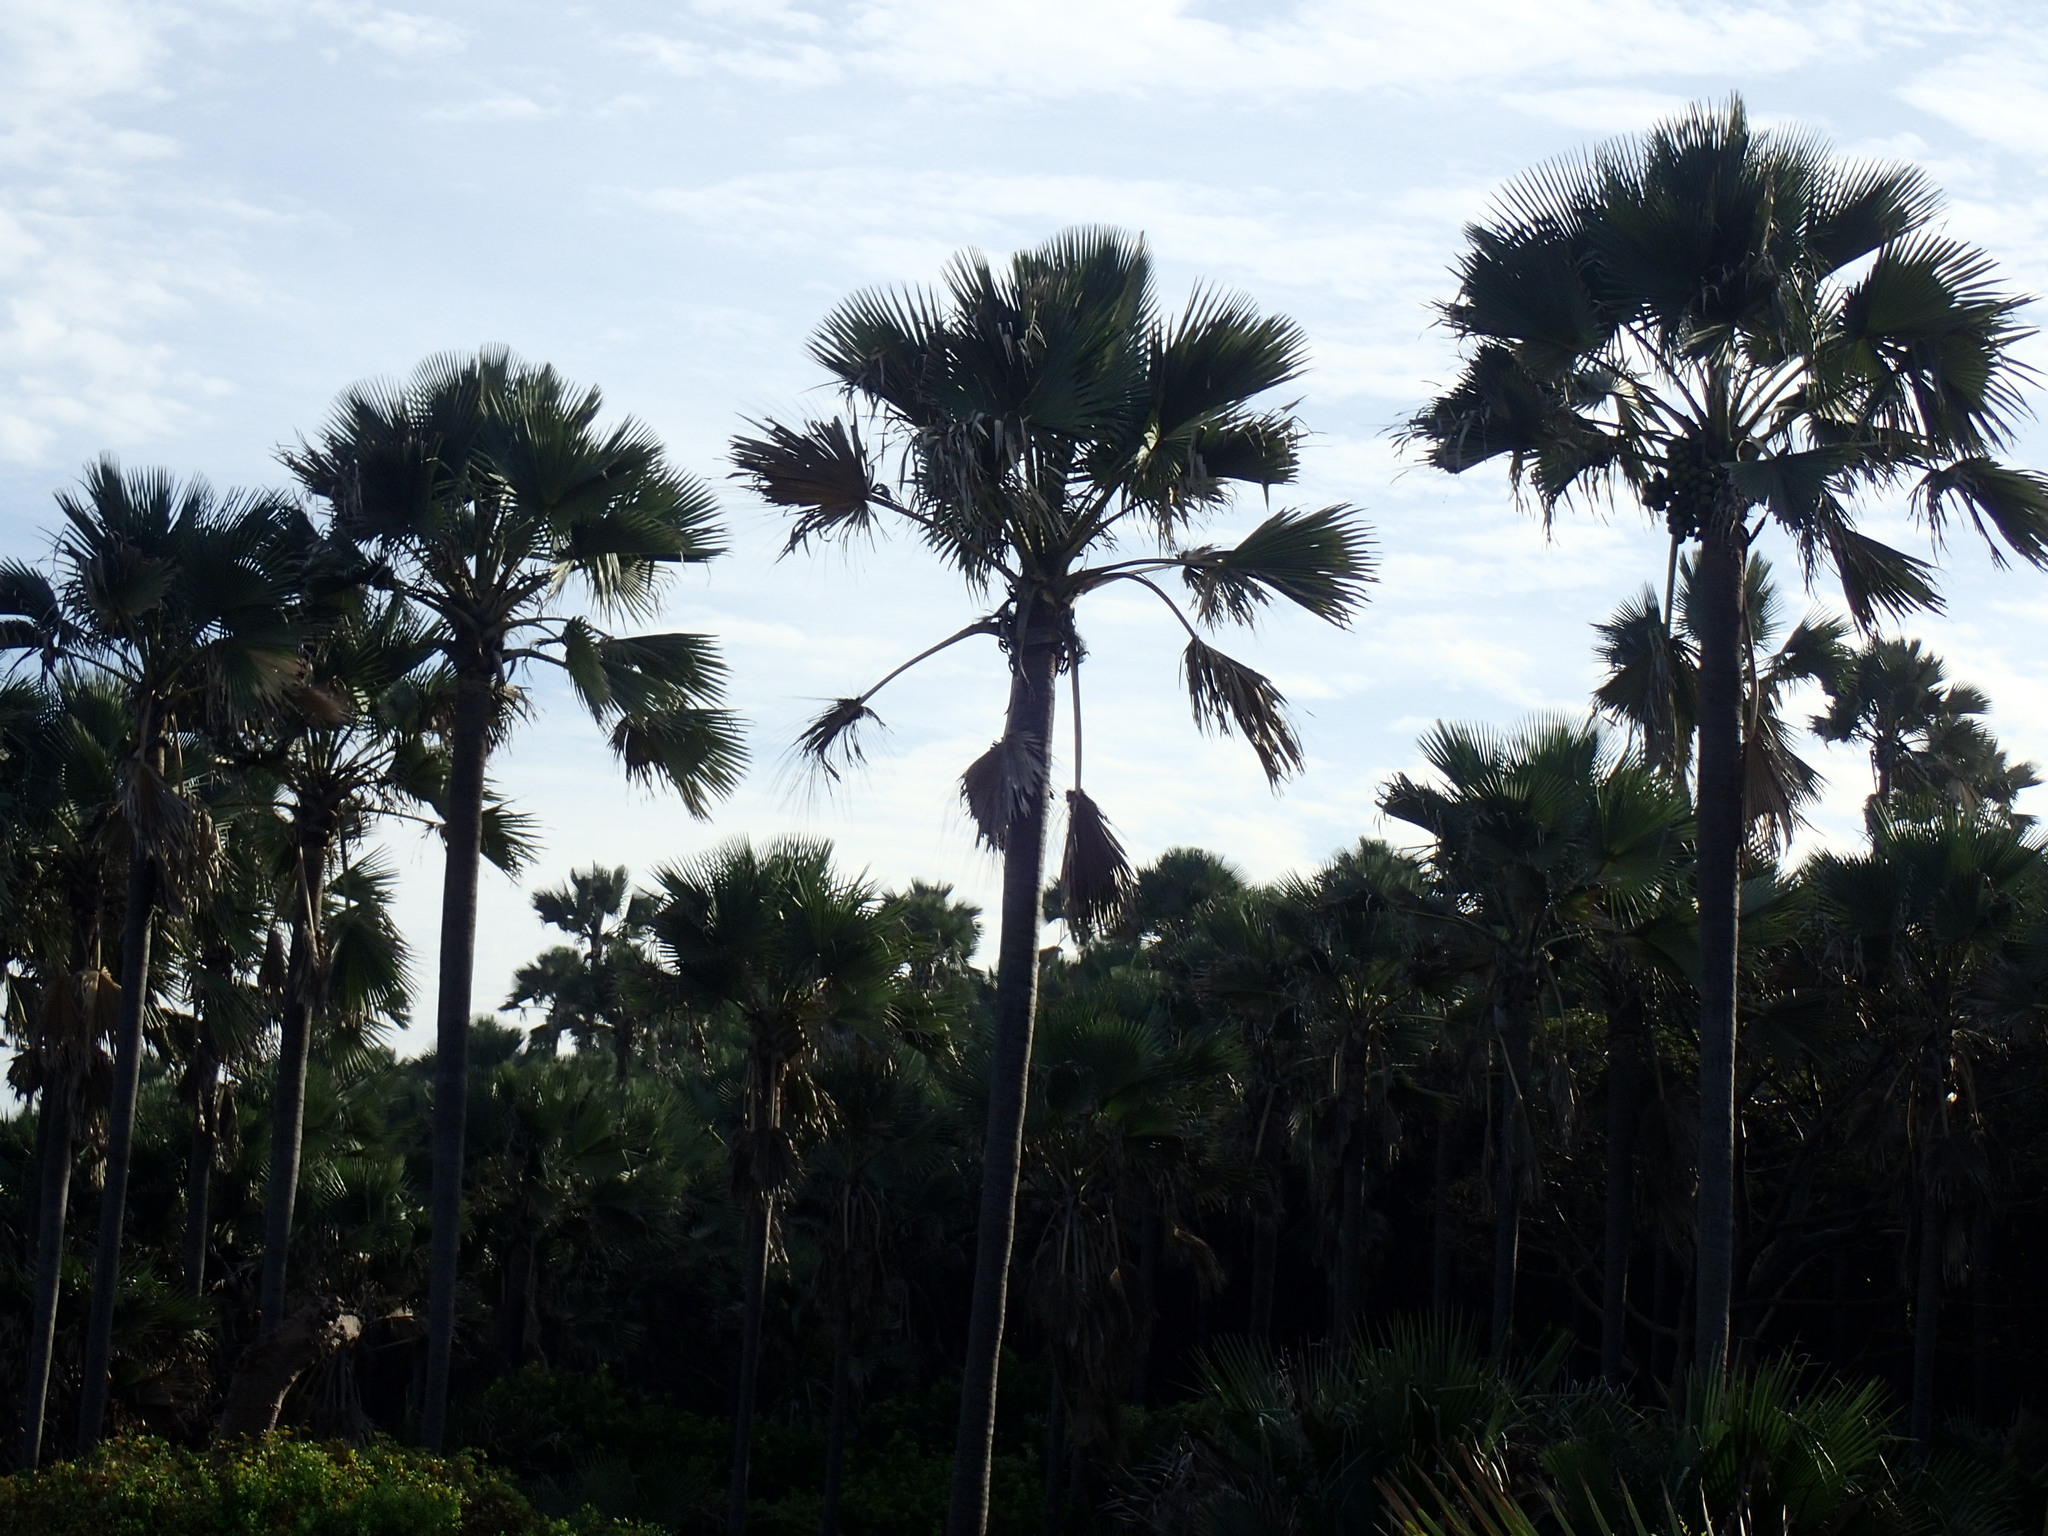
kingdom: Plantae
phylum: Tracheophyta
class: Liliopsida
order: Arecales
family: Arecaceae
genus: Borassus
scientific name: Borassus akeassii
